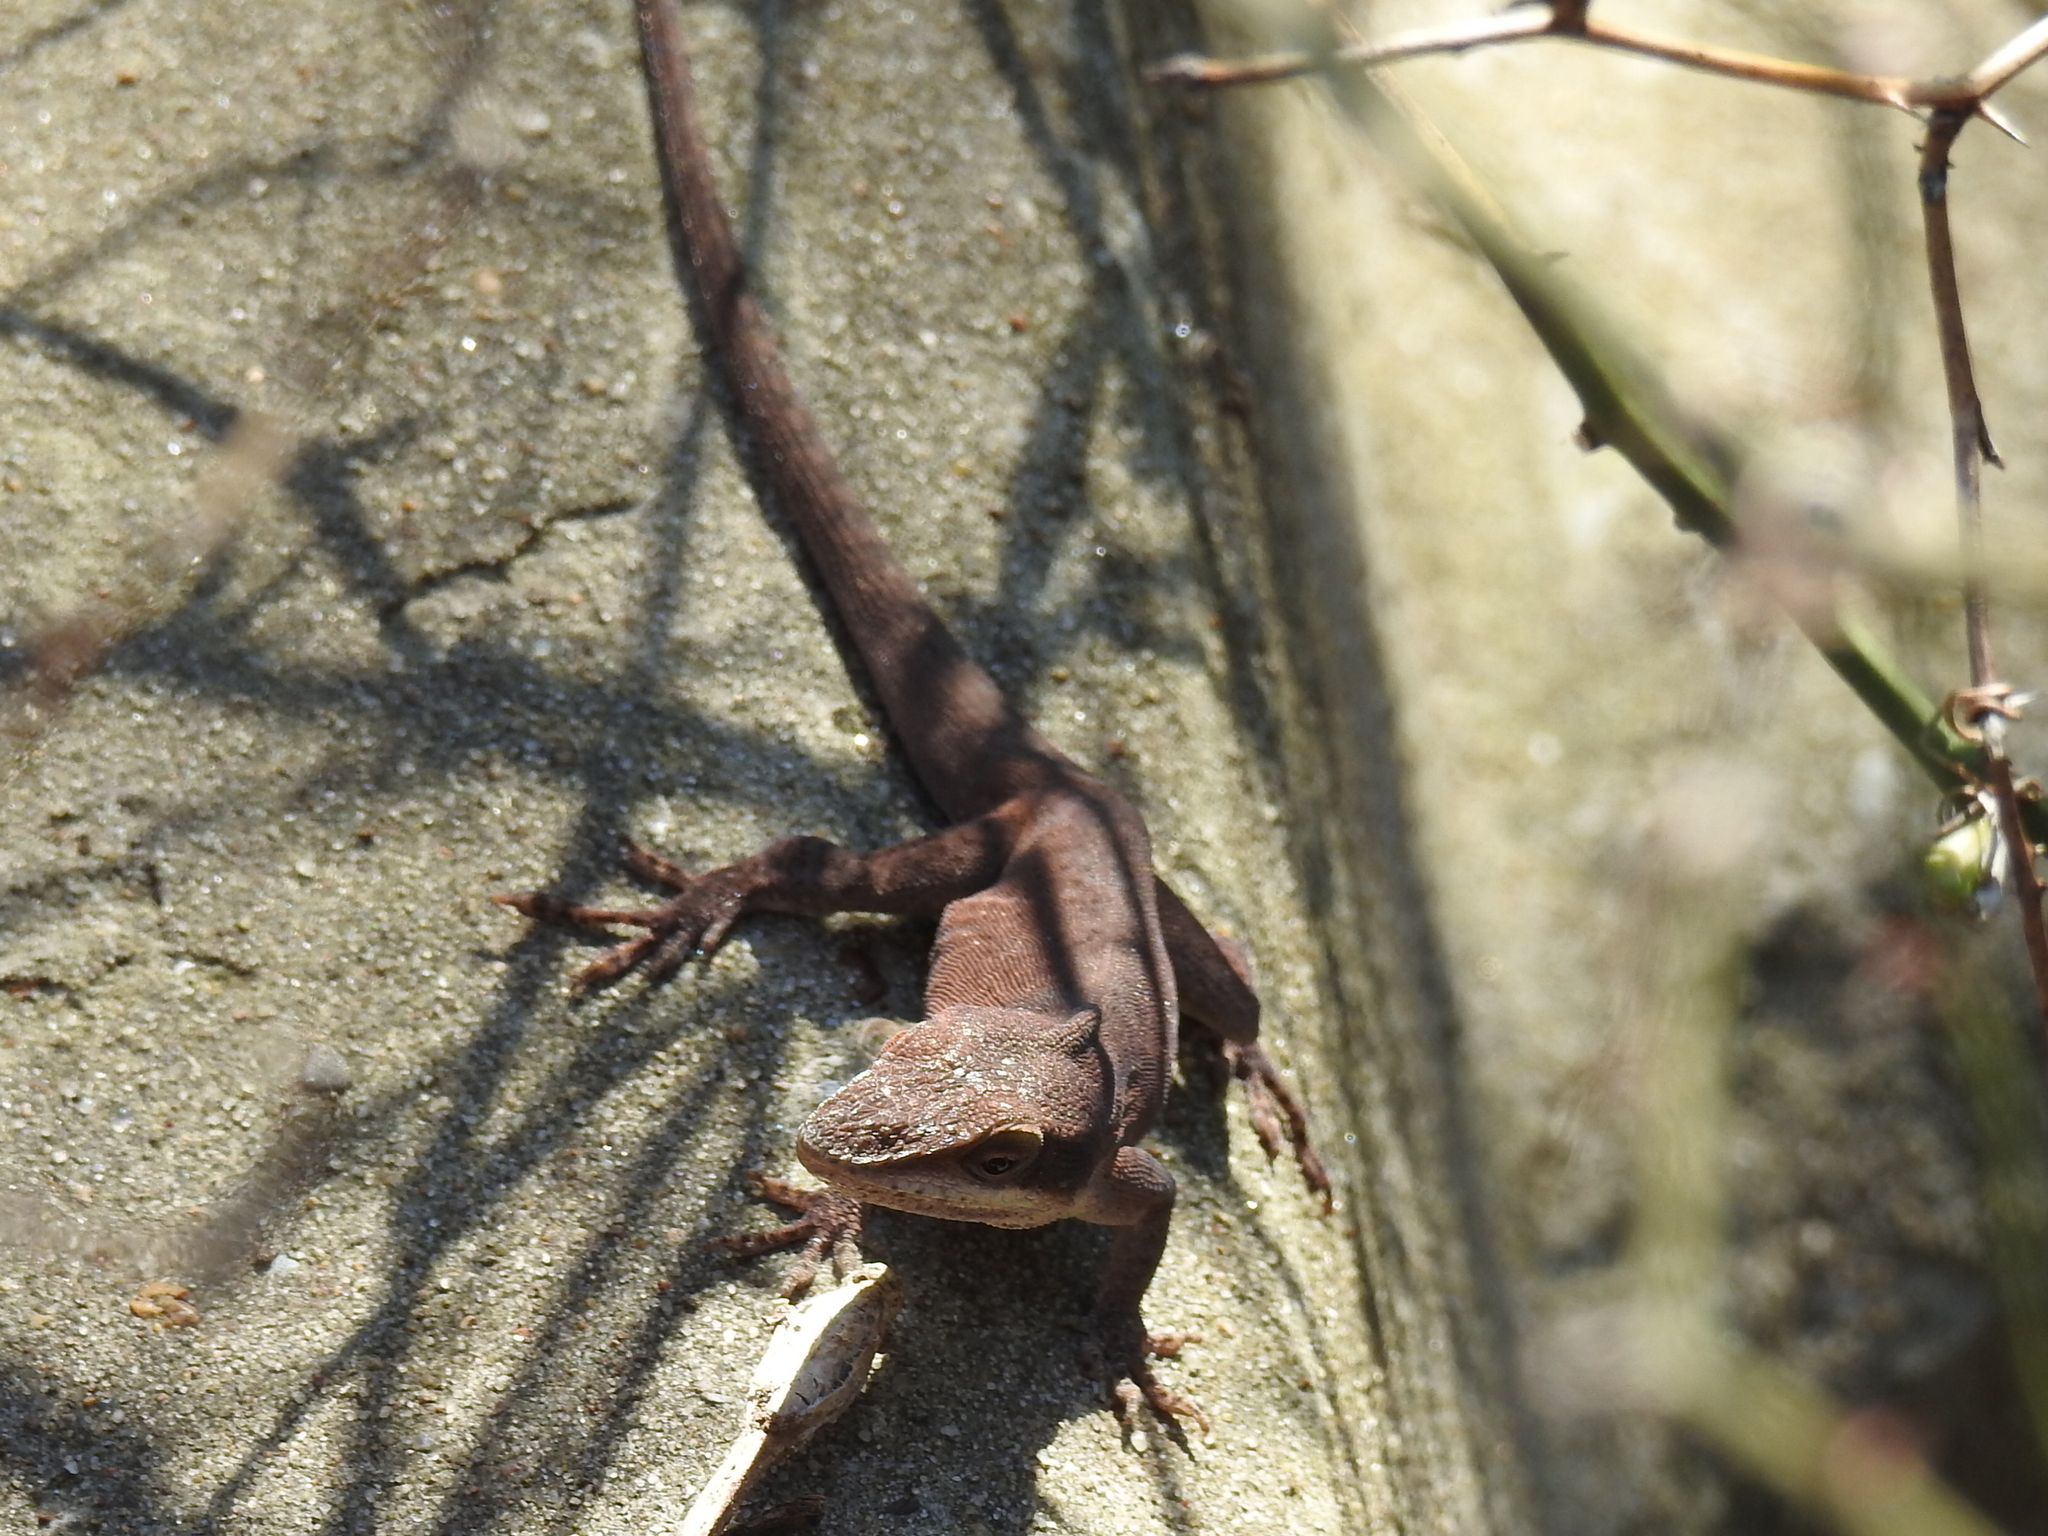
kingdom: Animalia
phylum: Chordata
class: Squamata
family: Dactyloidae
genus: Anolis
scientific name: Anolis carolinensis
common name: Green anole
